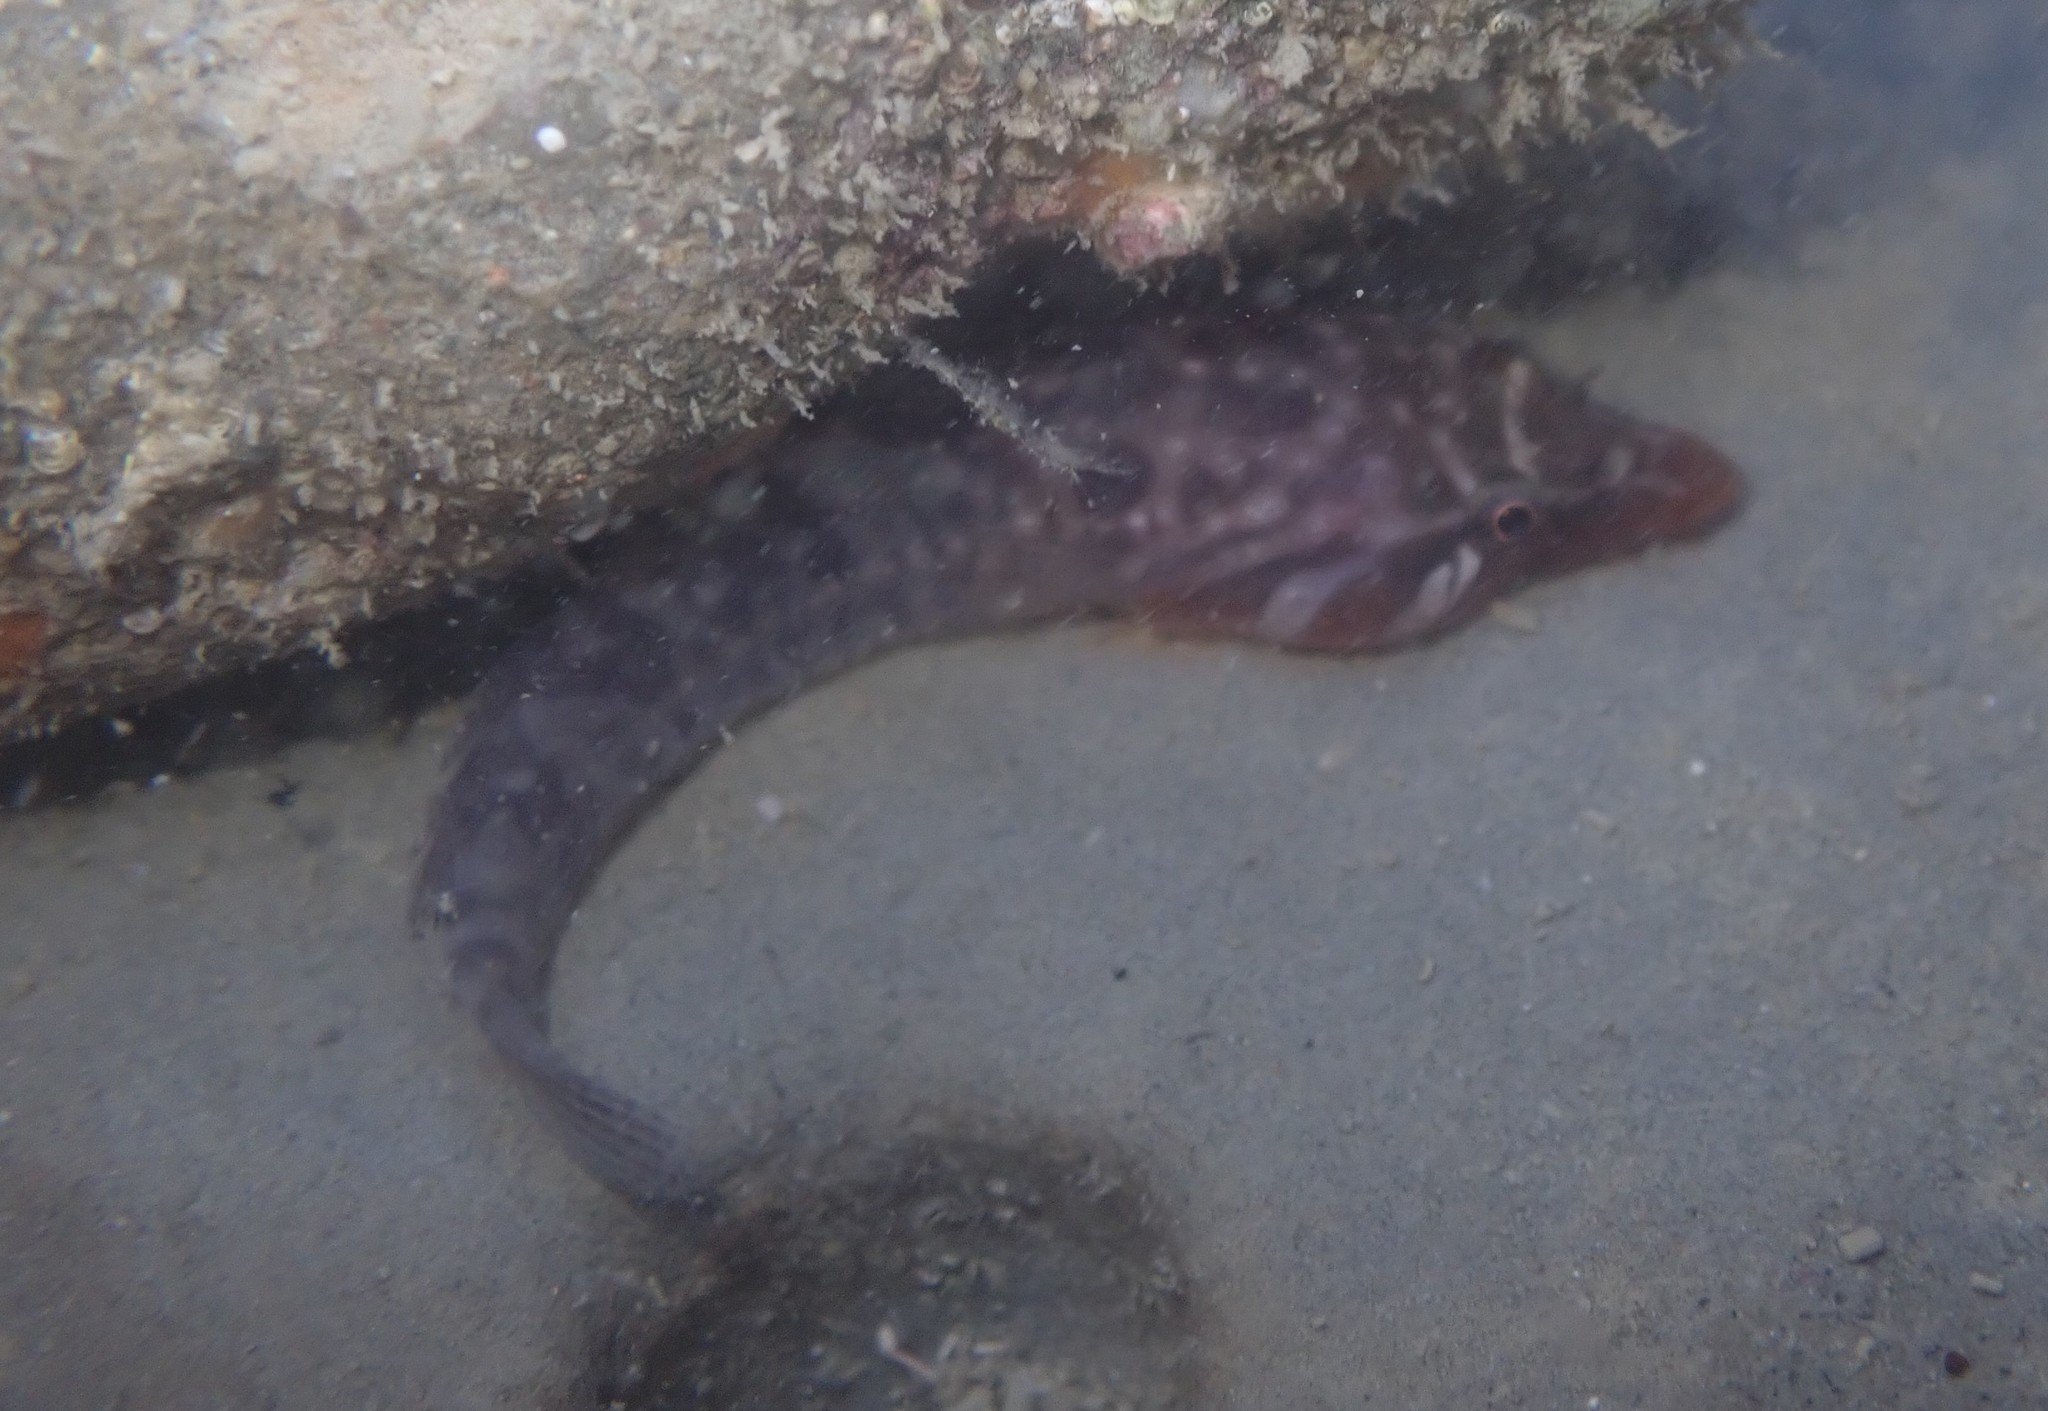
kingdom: Animalia
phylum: Chordata
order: Gobiesociformes
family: Gobiesocidae
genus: Dellichthys
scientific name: Dellichthys morelandi
